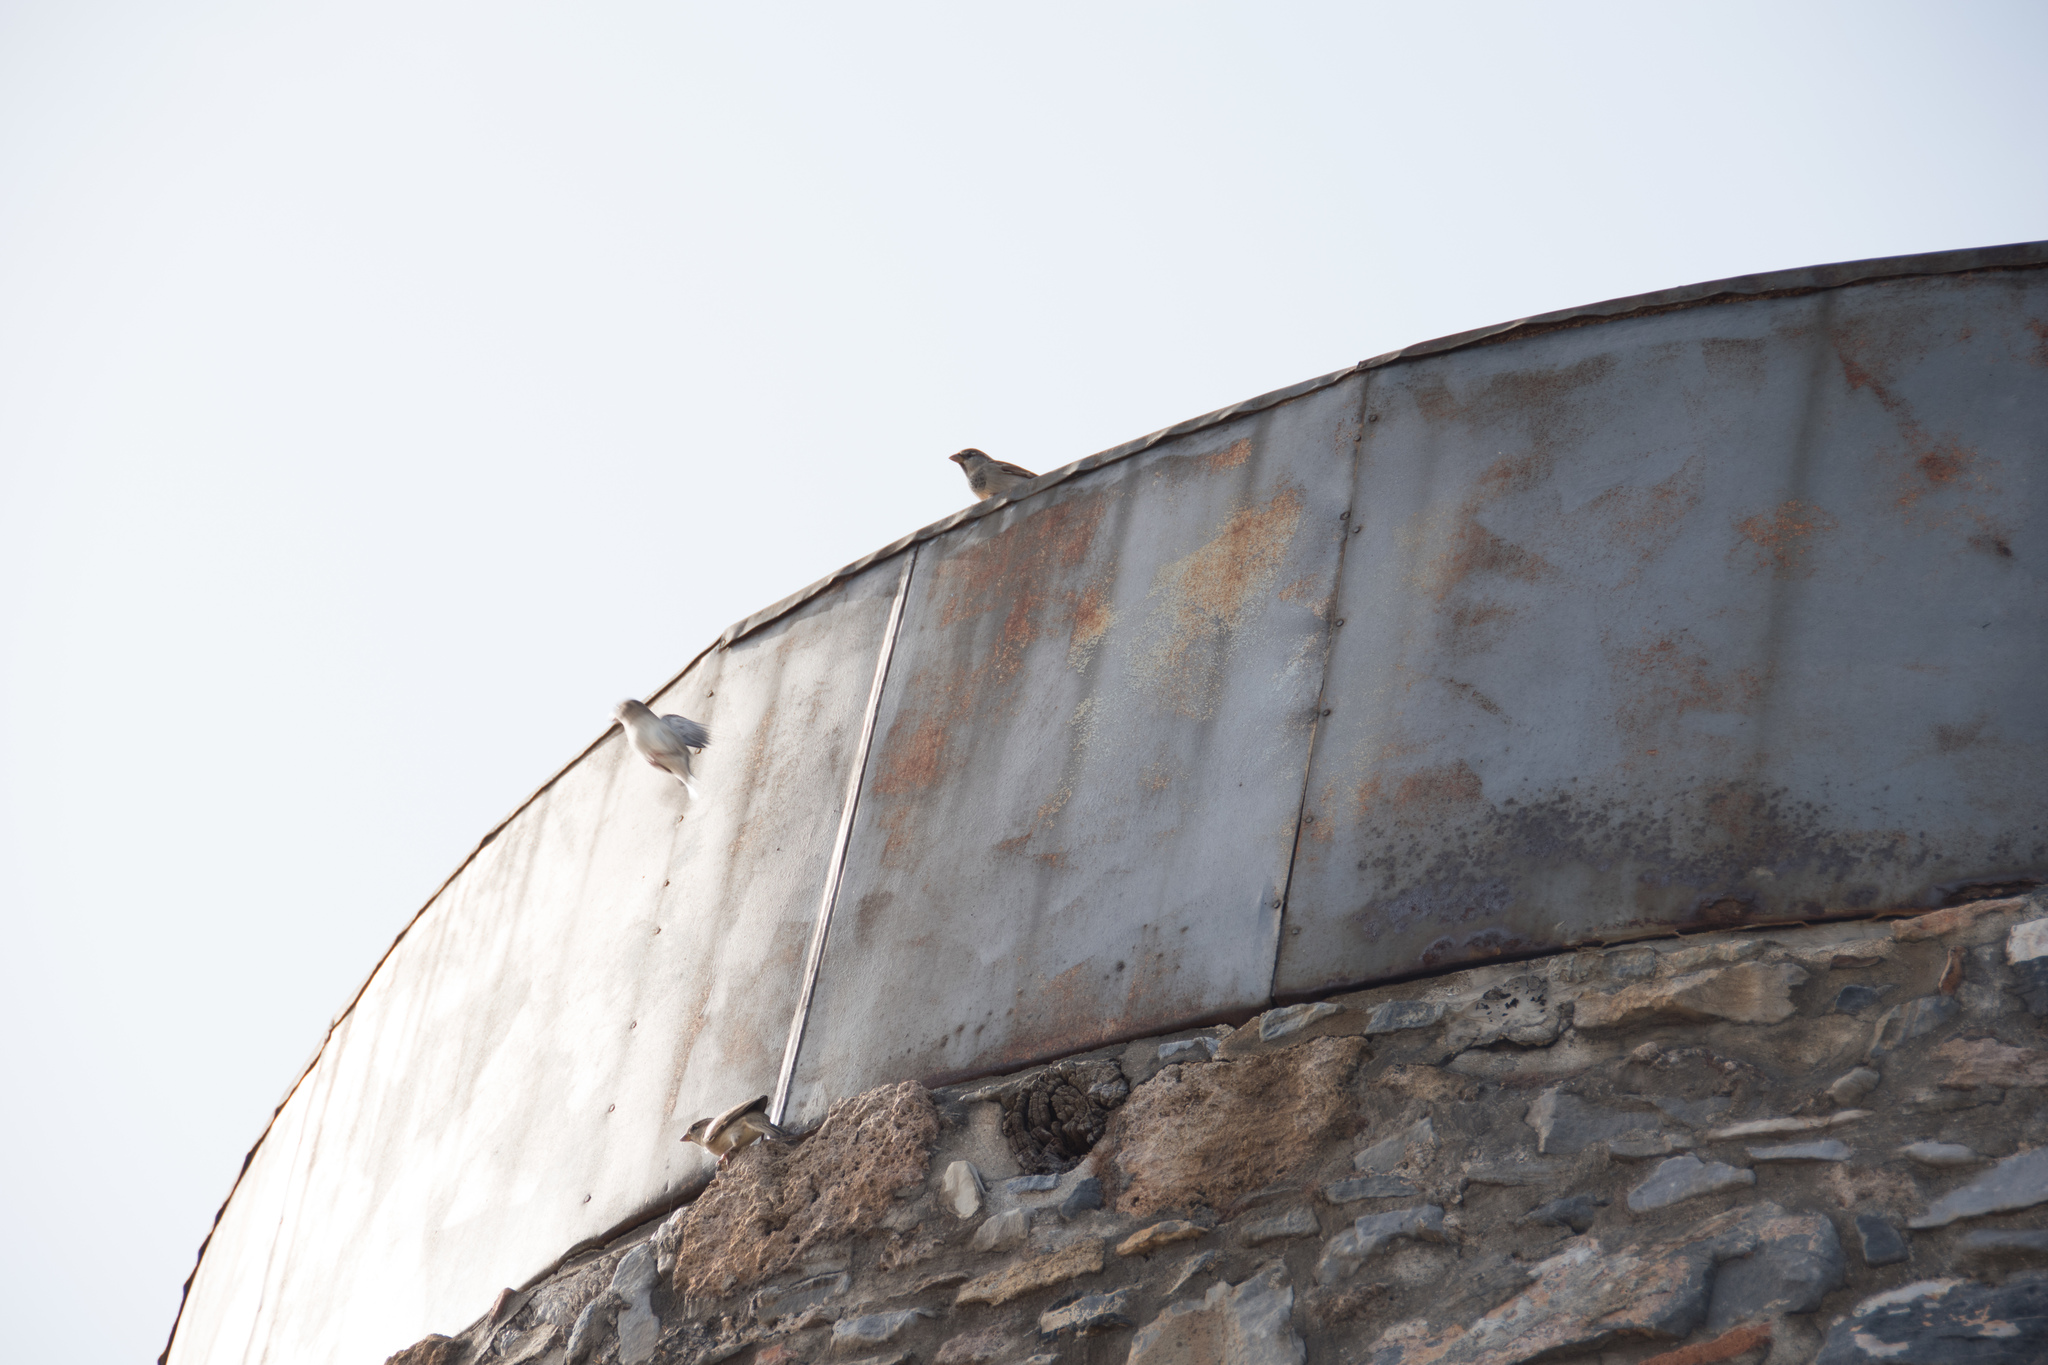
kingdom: Animalia
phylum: Chordata
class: Aves
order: Passeriformes
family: Passeridae
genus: Passer
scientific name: Passer
